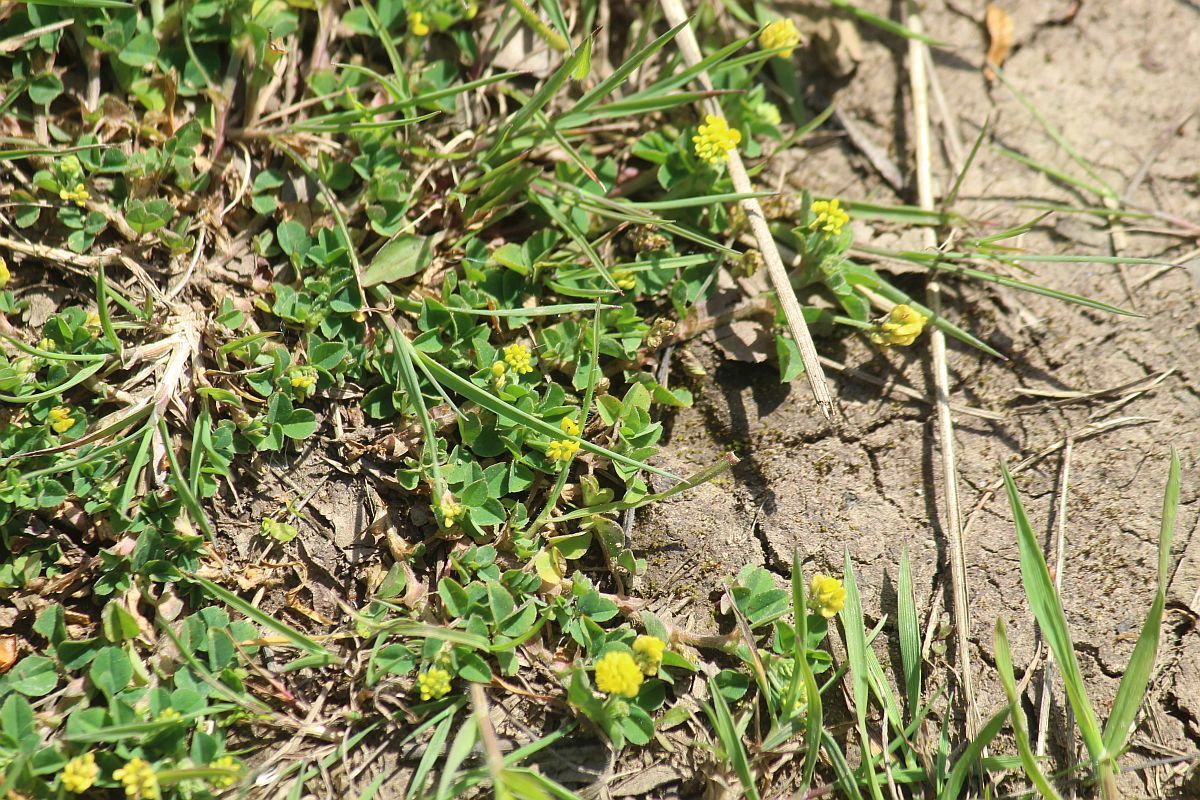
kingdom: Plantae
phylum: Tracheophyta
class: Magnoliopsida
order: Fabales
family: Fabaceae
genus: Medicago
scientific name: Medicago lupulina
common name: Black medick
